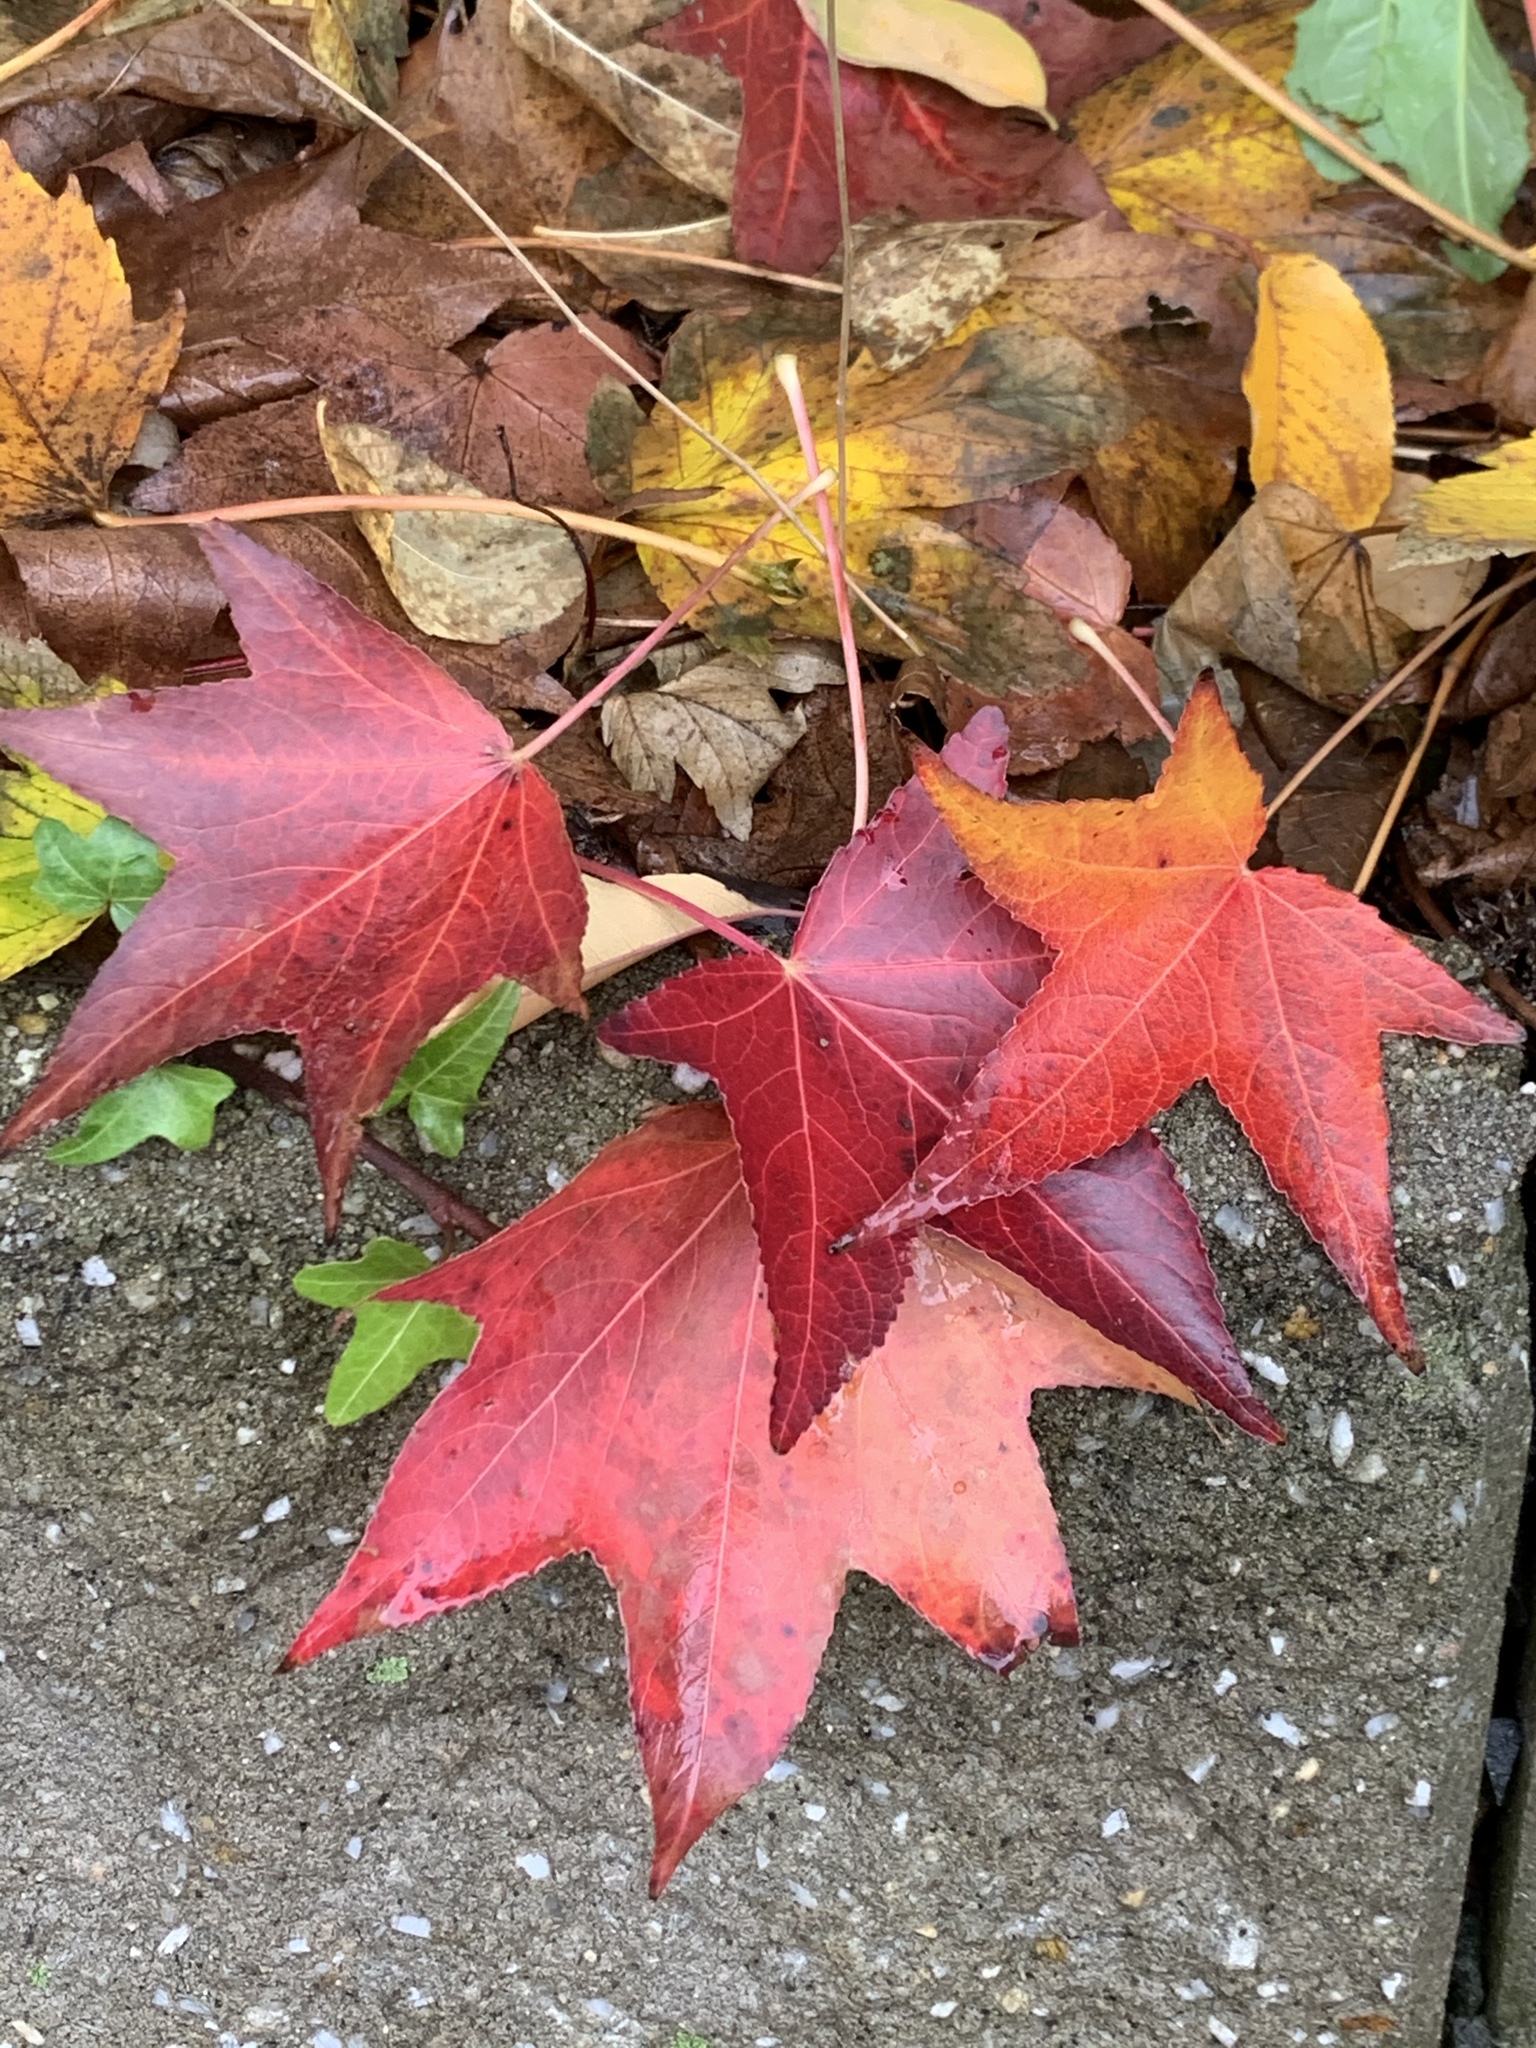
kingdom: Plantae
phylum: Tracheophyta
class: Magnoliopsida
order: Saxifragales
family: Altingiaceae
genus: Liquidambar
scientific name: Liquidambar styraciflua
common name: Sweet gum
